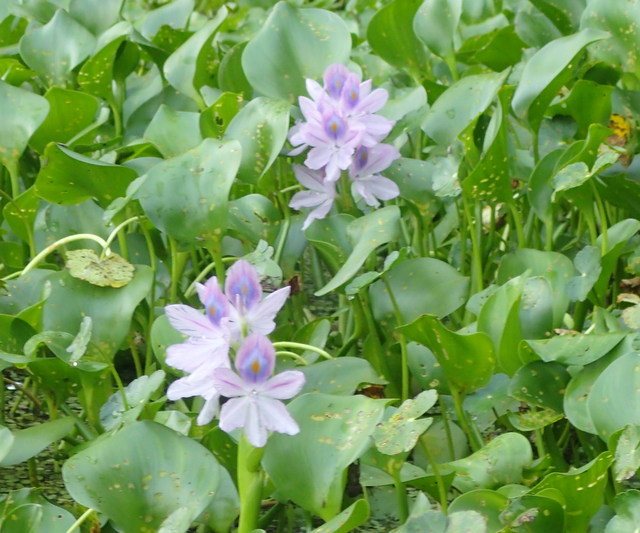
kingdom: Plantae
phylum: Tracheophyta
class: Liliopsida
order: Commelinales
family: Pontederiaceae
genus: Pontederia
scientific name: Pontederia crassipes
